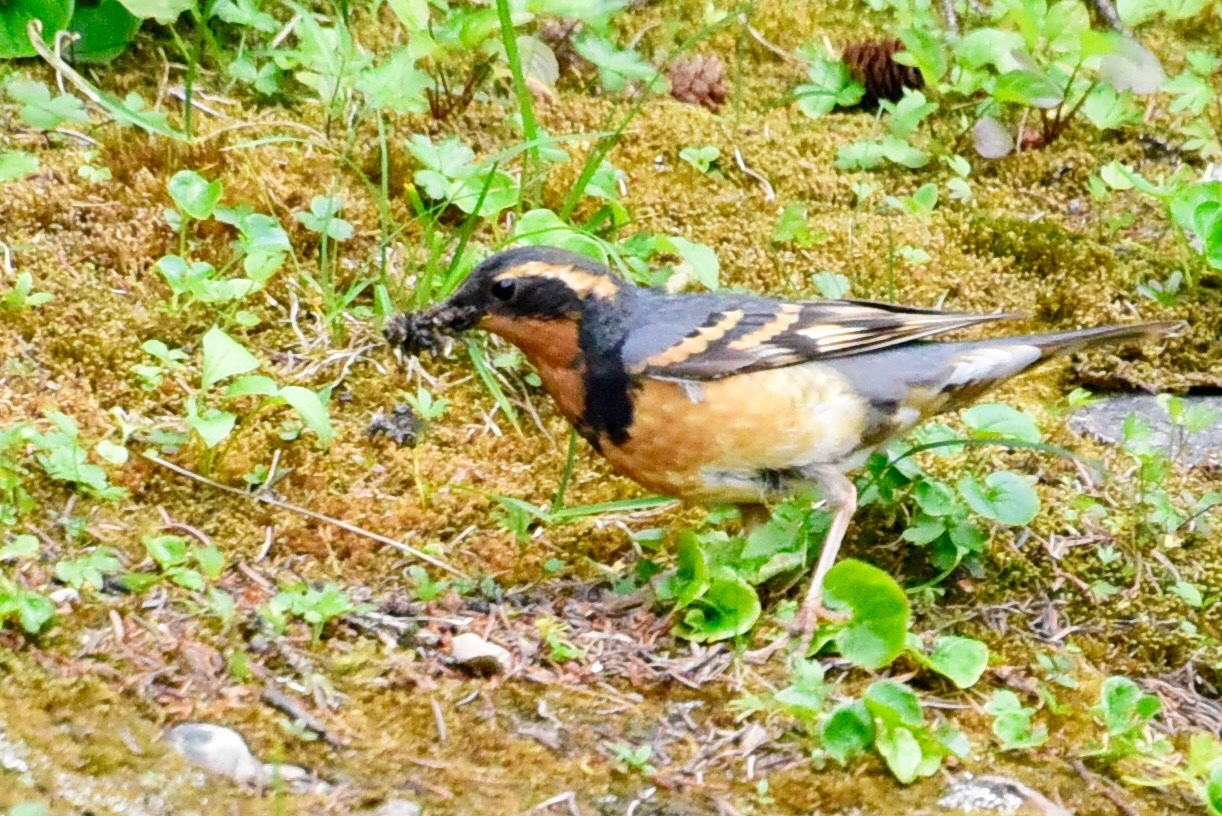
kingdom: Animalia
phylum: Chordata
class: Aves
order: Passeriformes
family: Turdidae
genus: Ixoreus
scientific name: Ixoreus naevius
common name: Varied thrush
